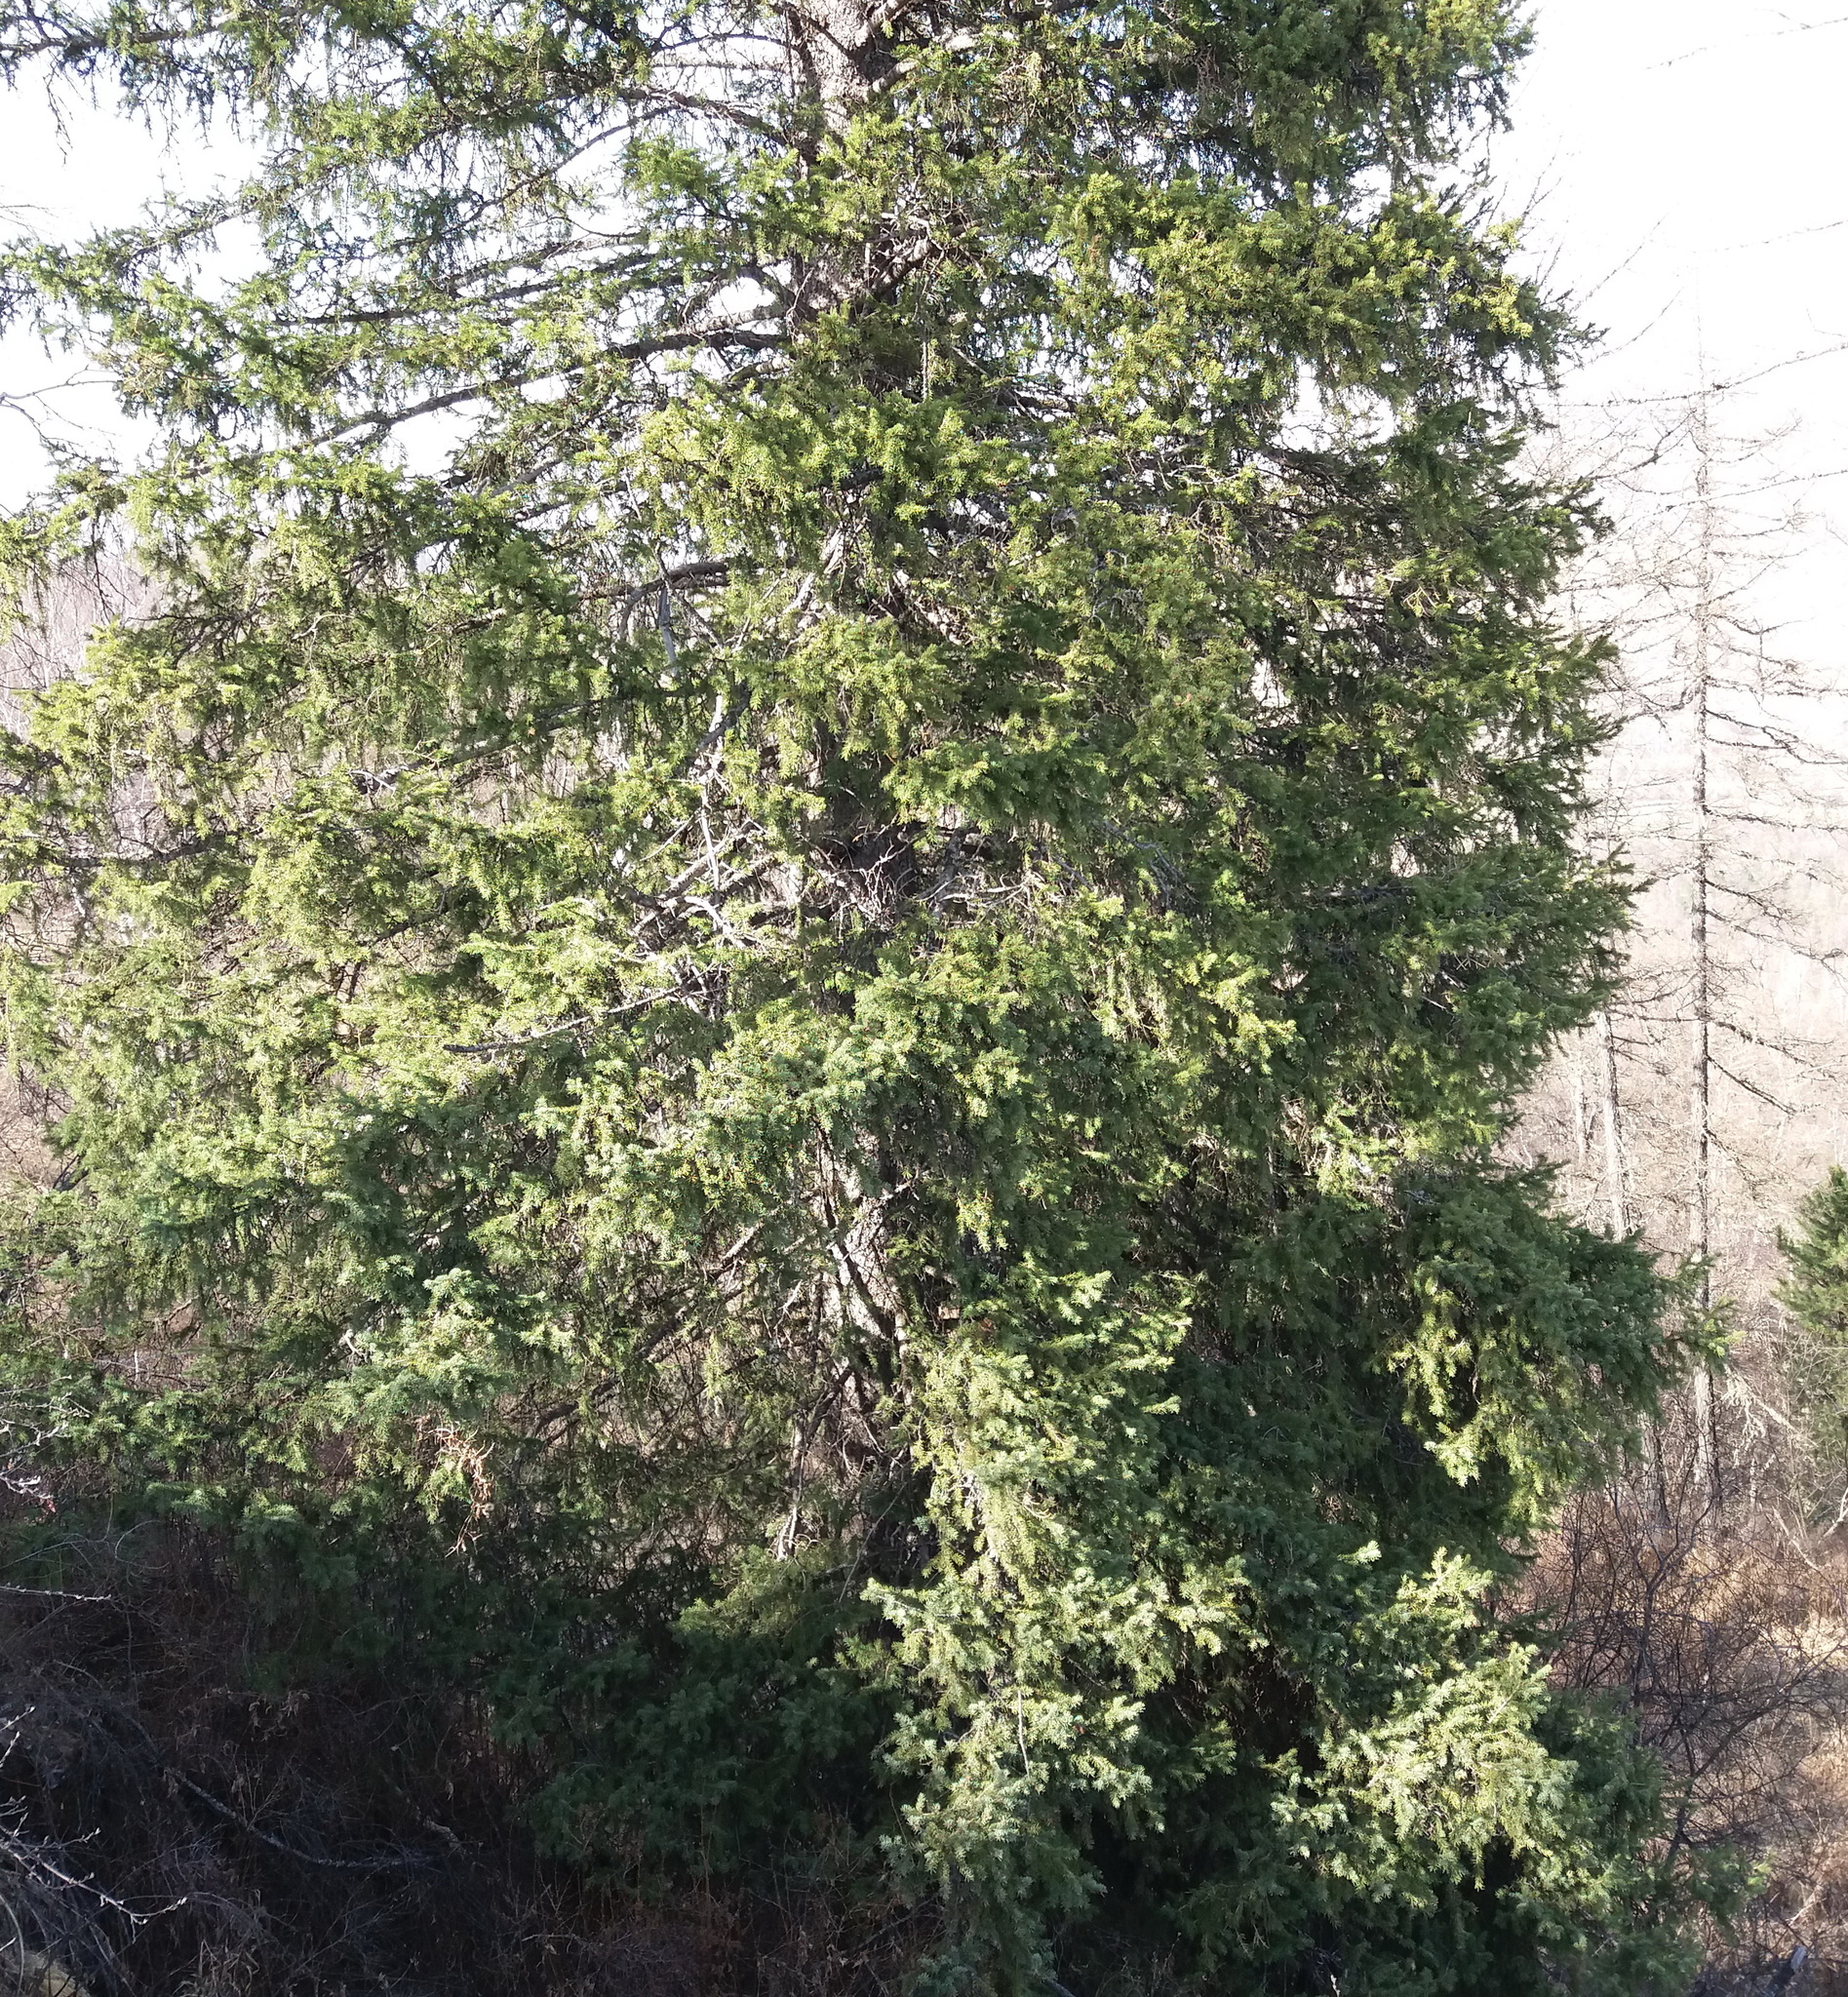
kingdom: Plantae
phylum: Tracheophyta
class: Pinopsida
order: Pinales
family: Pinaceae
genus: Abies
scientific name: Abies sibirica
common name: Siberian fir
